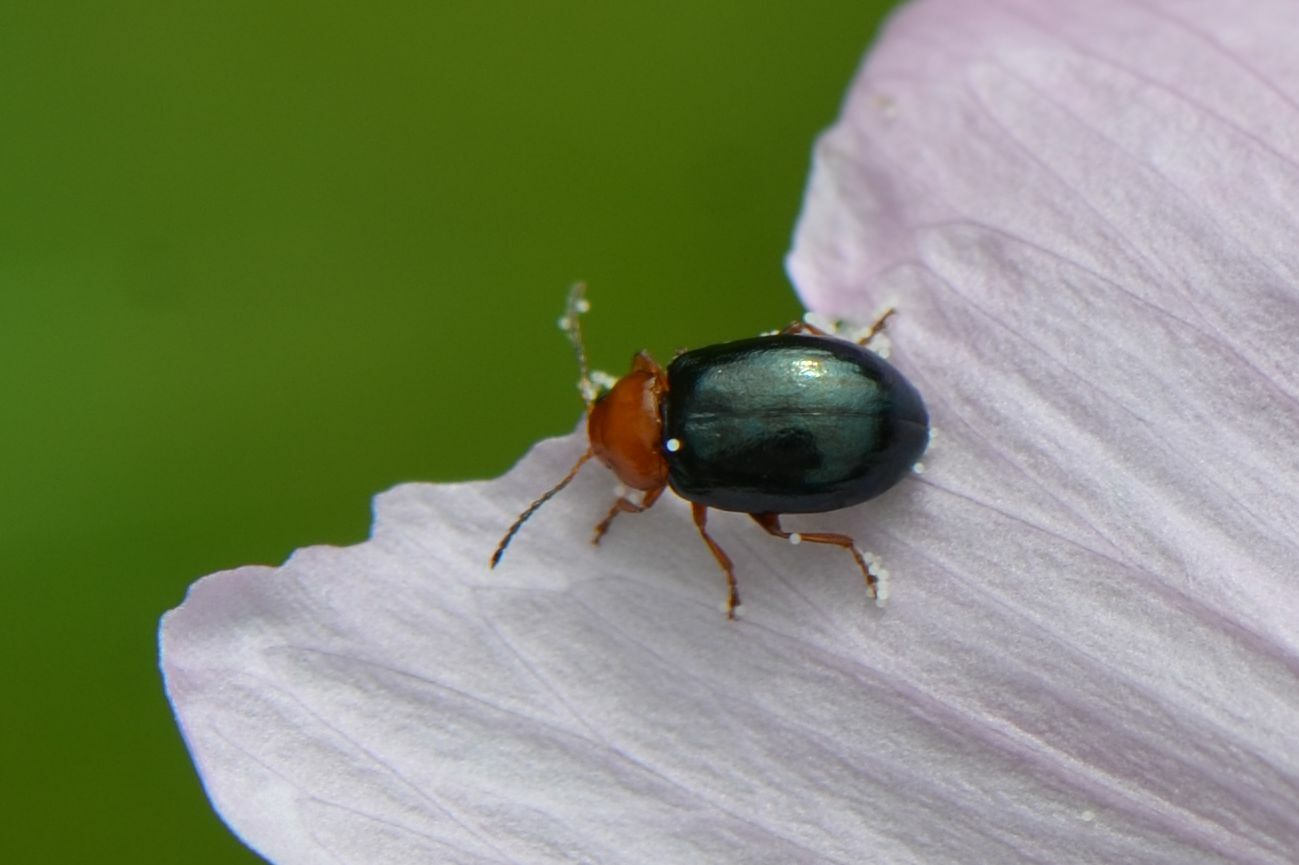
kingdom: Animalia
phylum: Arthropoda
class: Insecta
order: Coleoptera
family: Chrysomelidae
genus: Podagrica
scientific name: Podagrica fuscicornis
